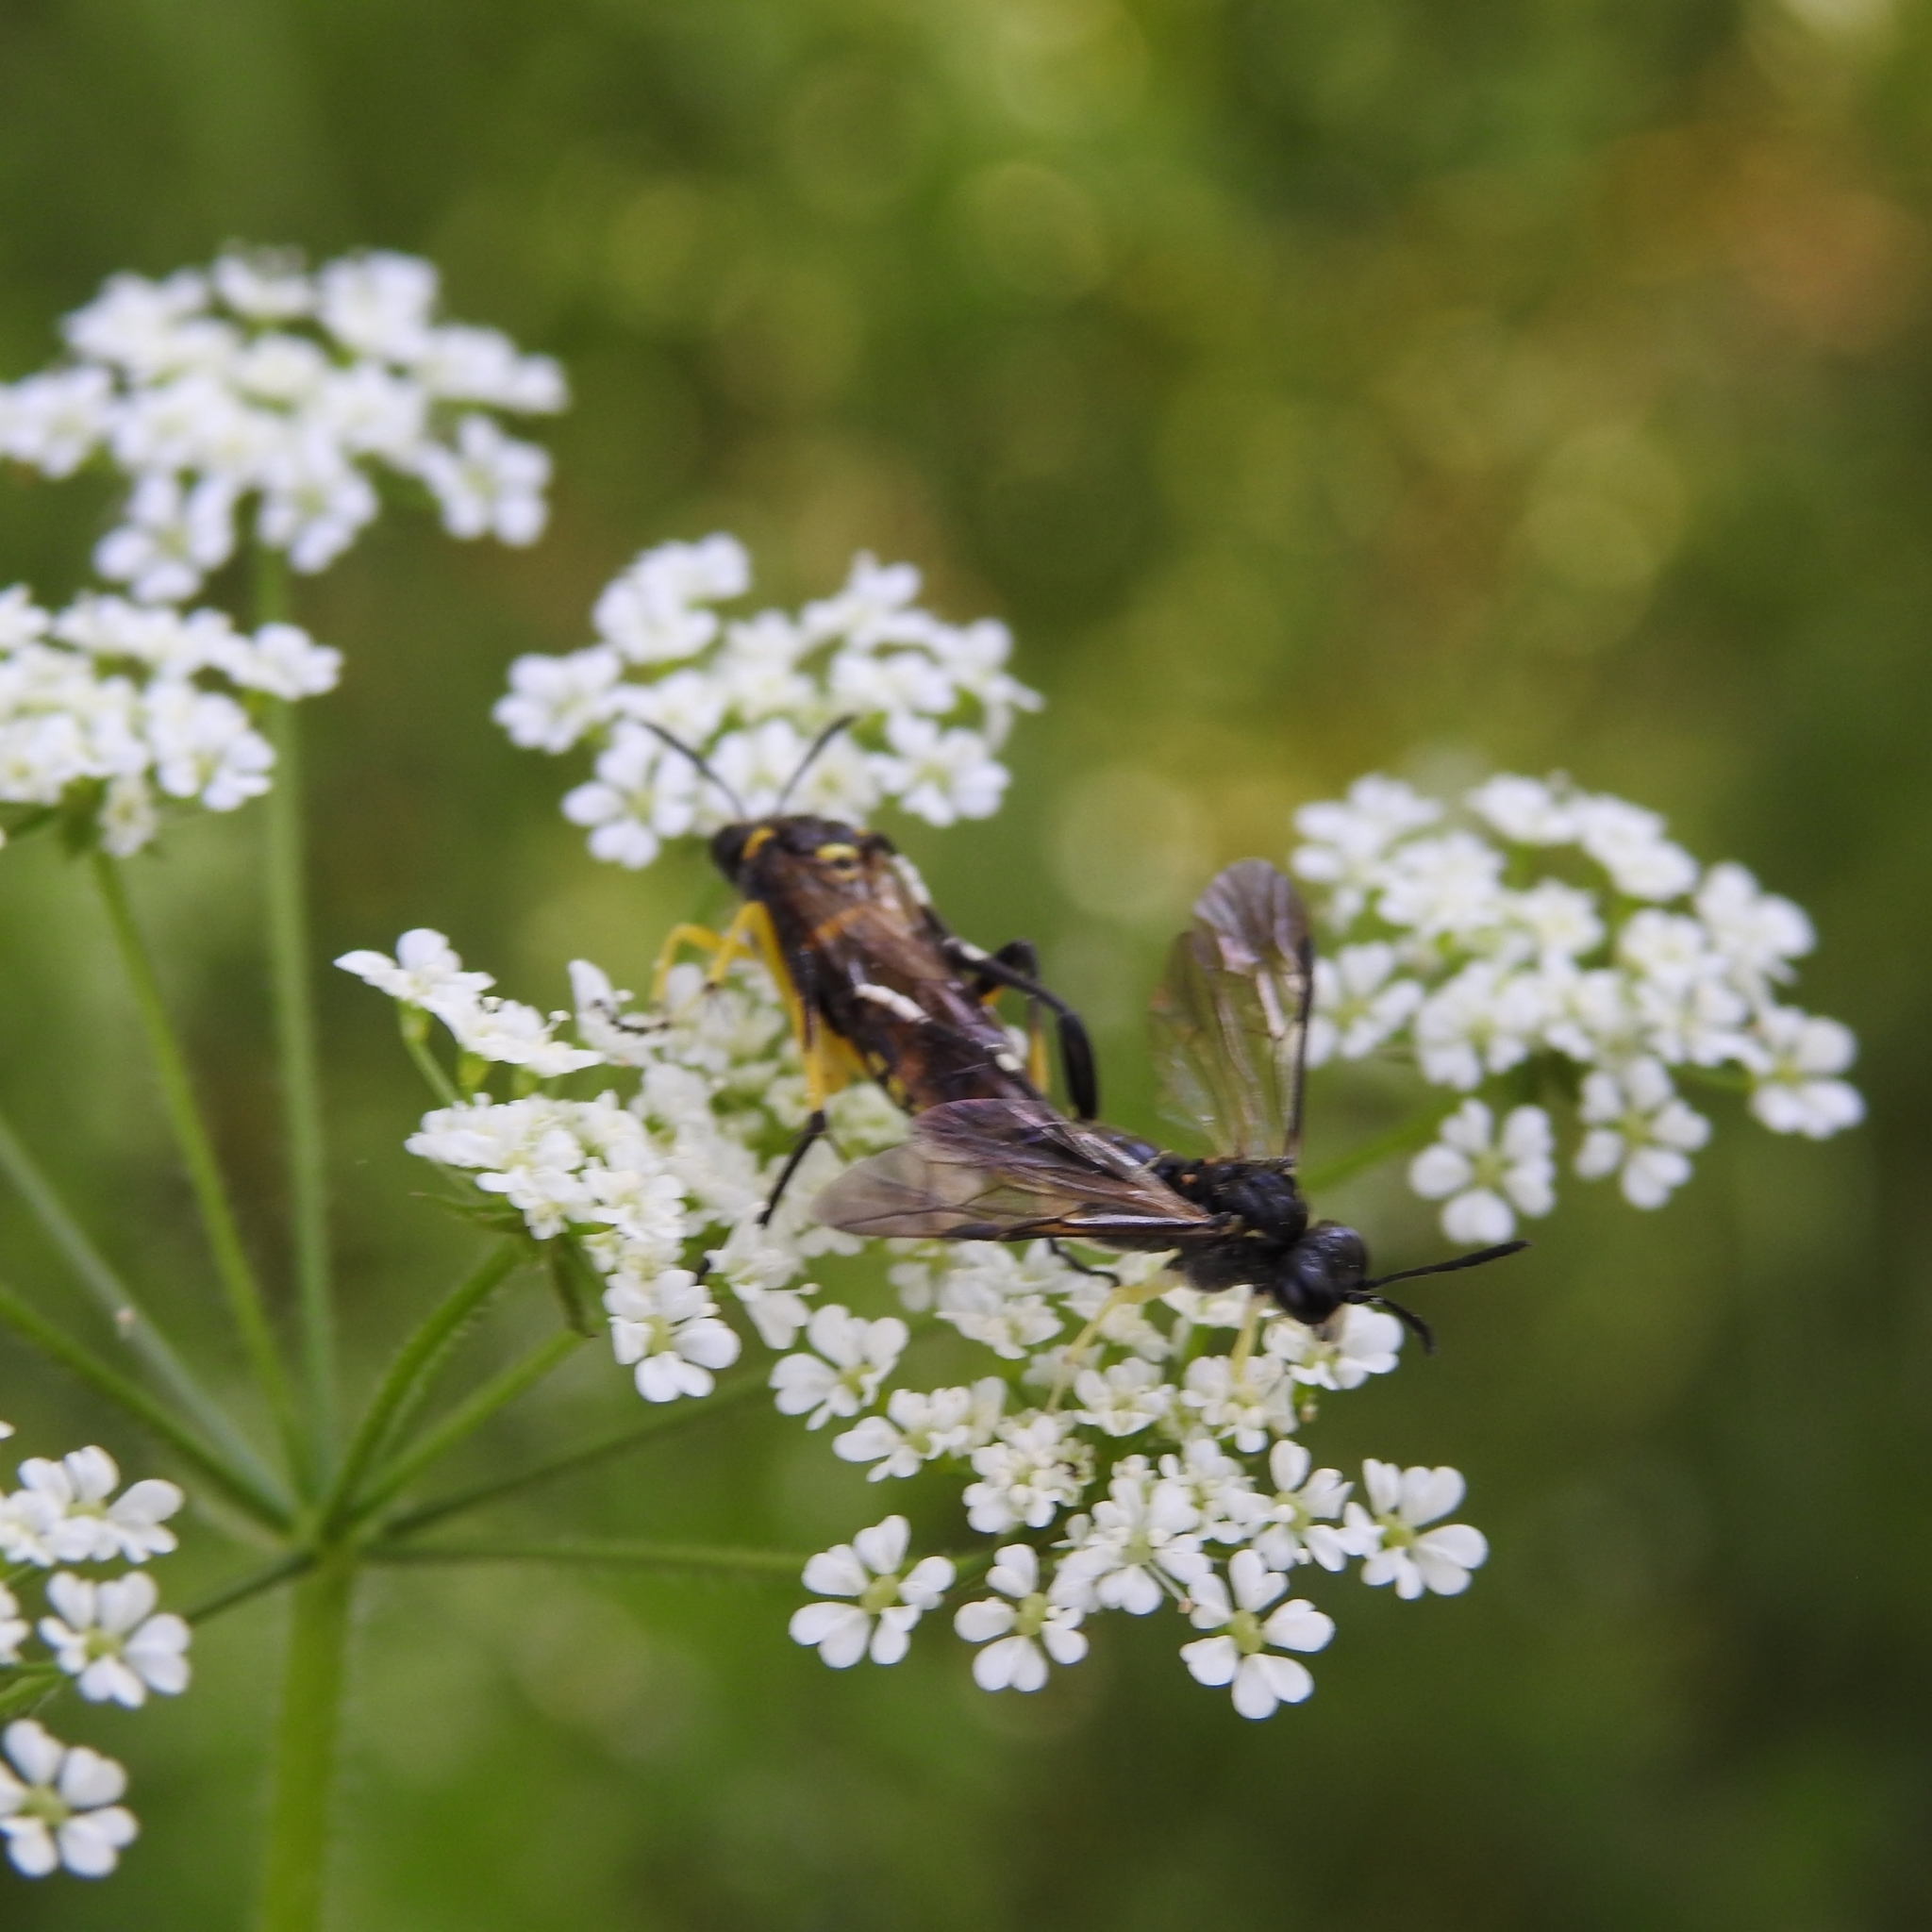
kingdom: Animalia
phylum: Arthropoda
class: Insecta
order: Hymenoptera
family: Tenthredinidae
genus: Macrophya
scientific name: Macrophya montana
